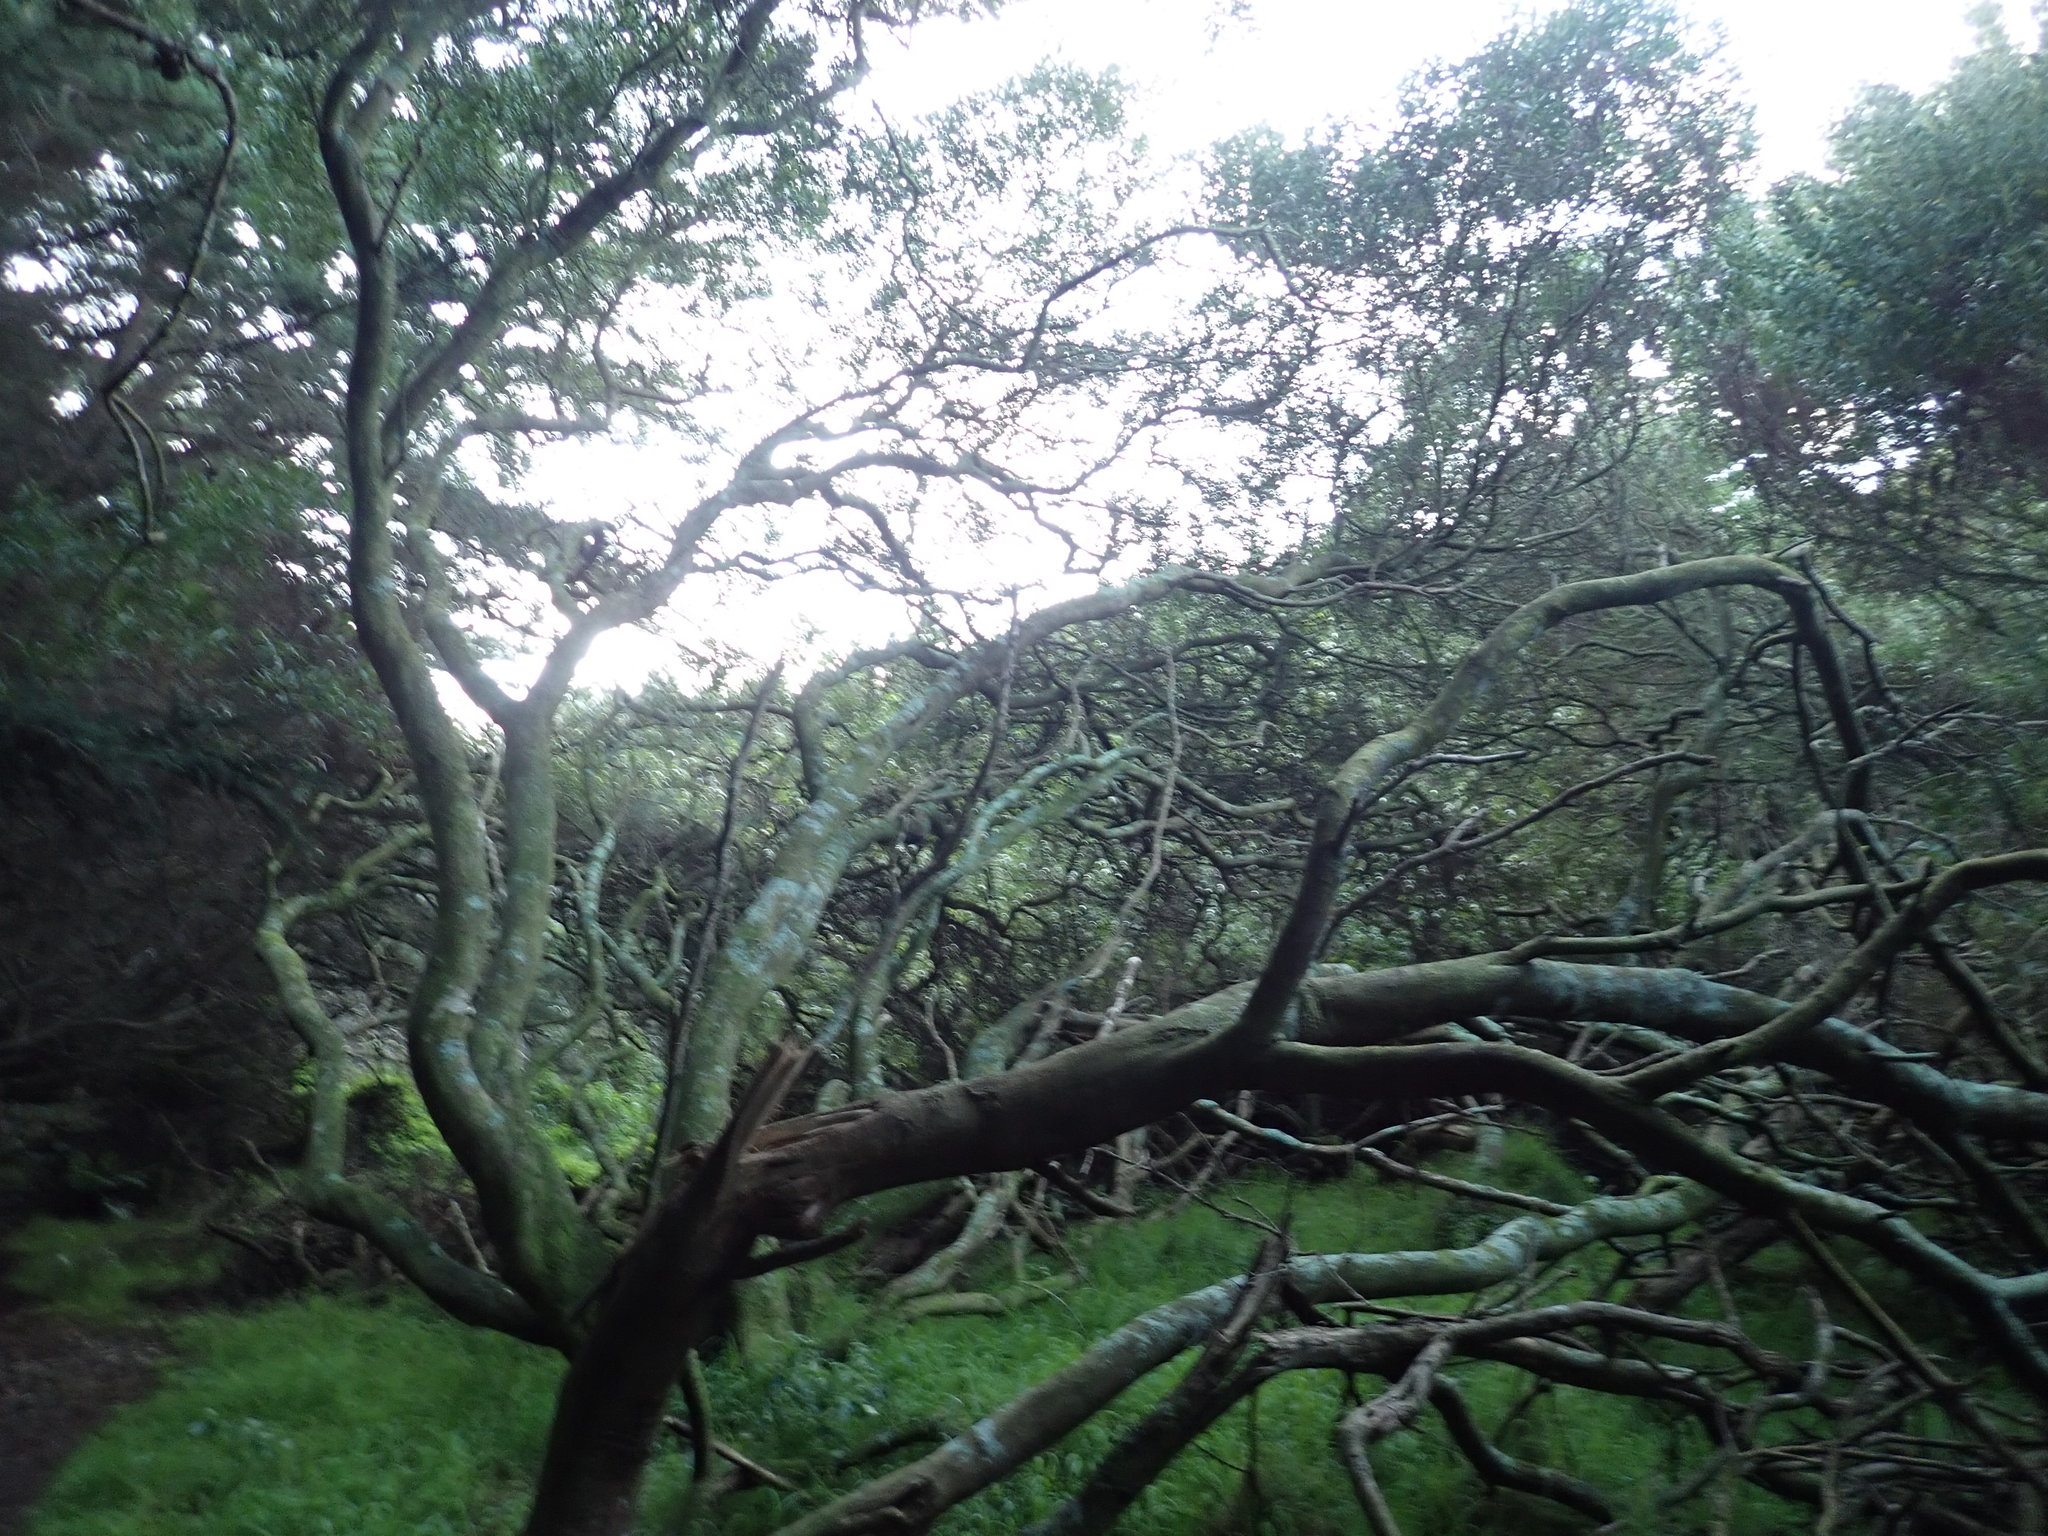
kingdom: Plantae
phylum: Tracheophyta
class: Magnoliopsida
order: Fabales
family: Fabaceae
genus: Acacia
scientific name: Acacia longifolia
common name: Sydney golden wattle
